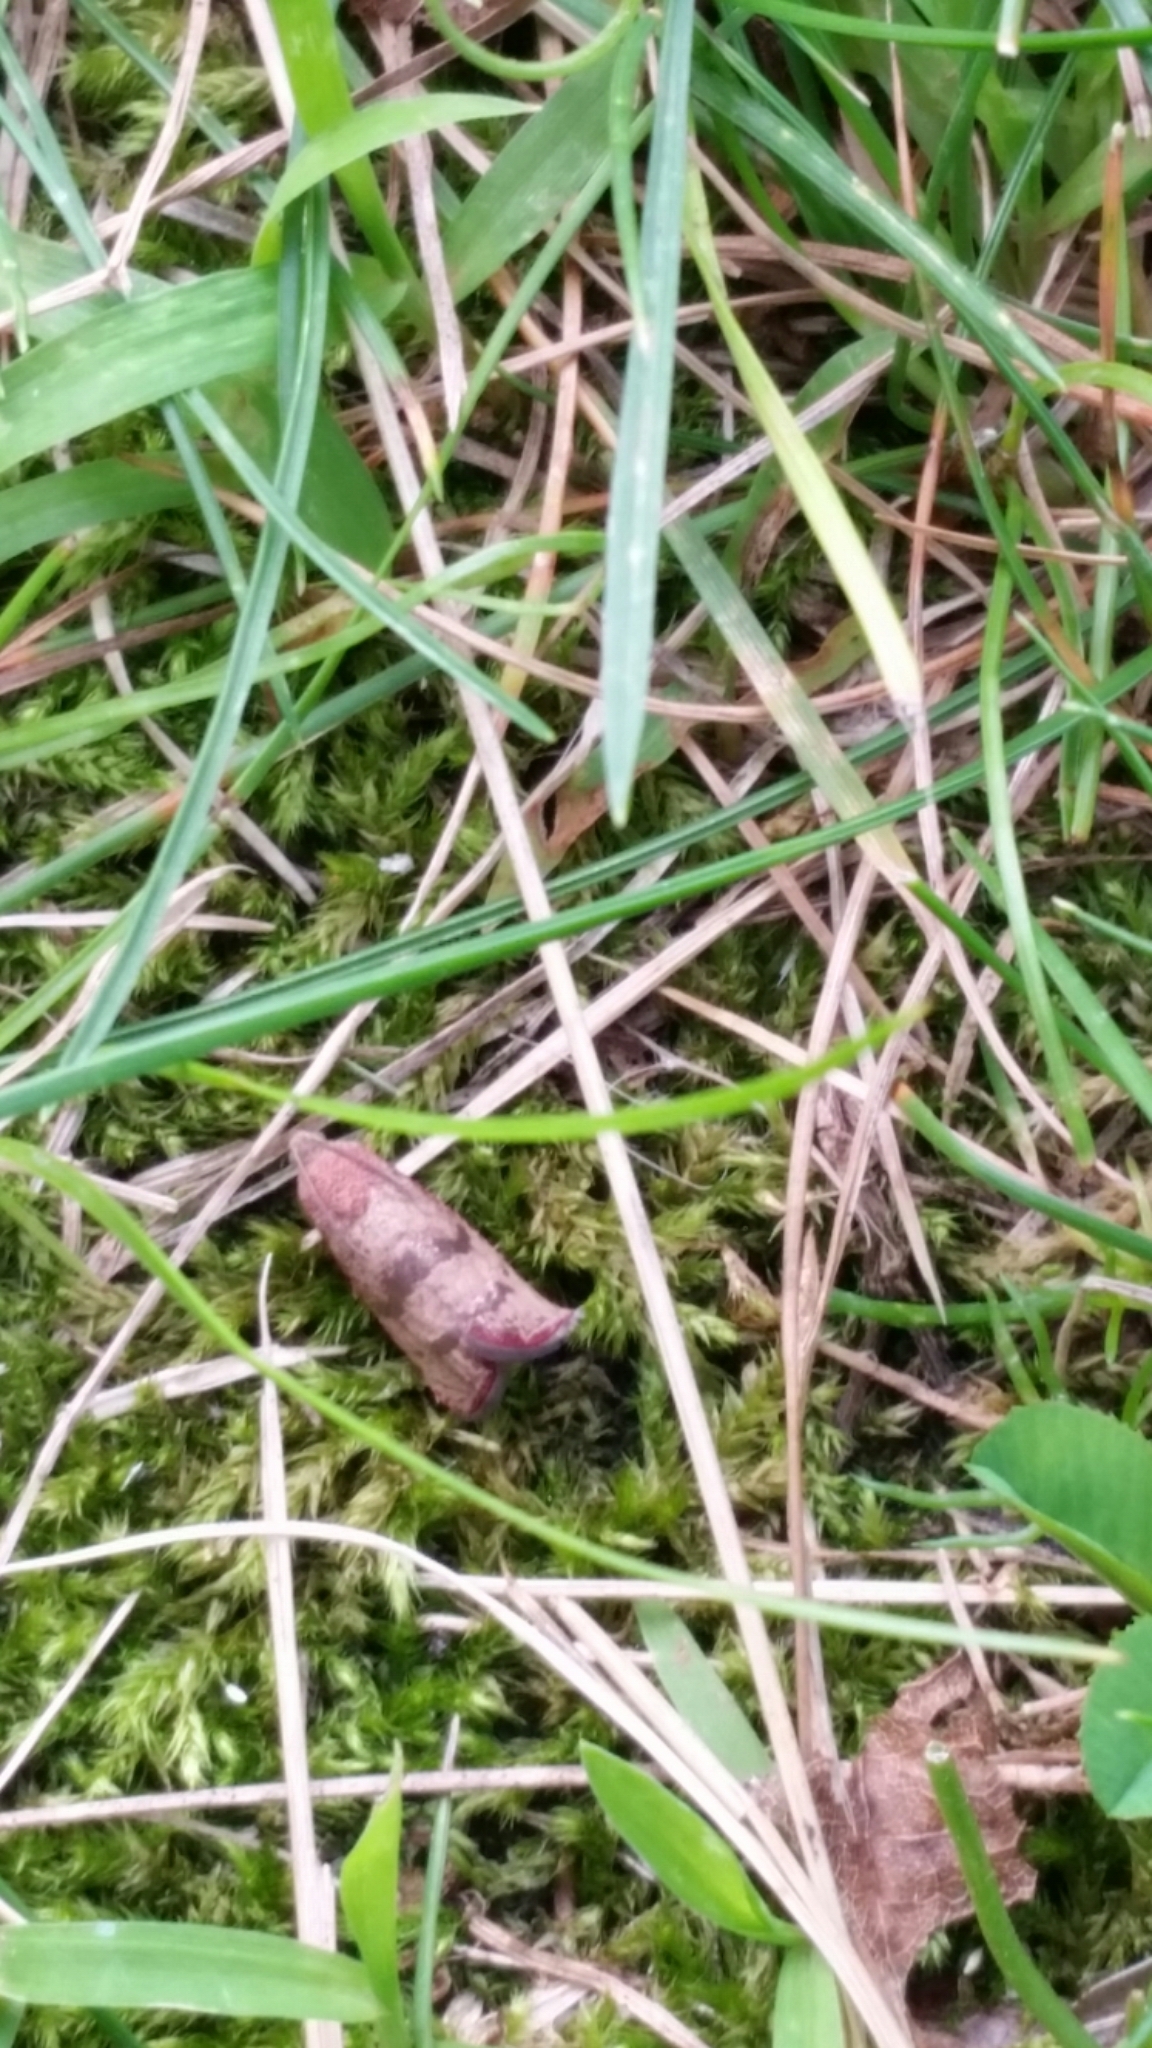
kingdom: Animalia
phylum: Arthropoda
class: Insecta
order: Lepidoptera
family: Tortricidae
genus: Cydia
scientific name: Cydia latiferreana
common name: Filbertworm moth
